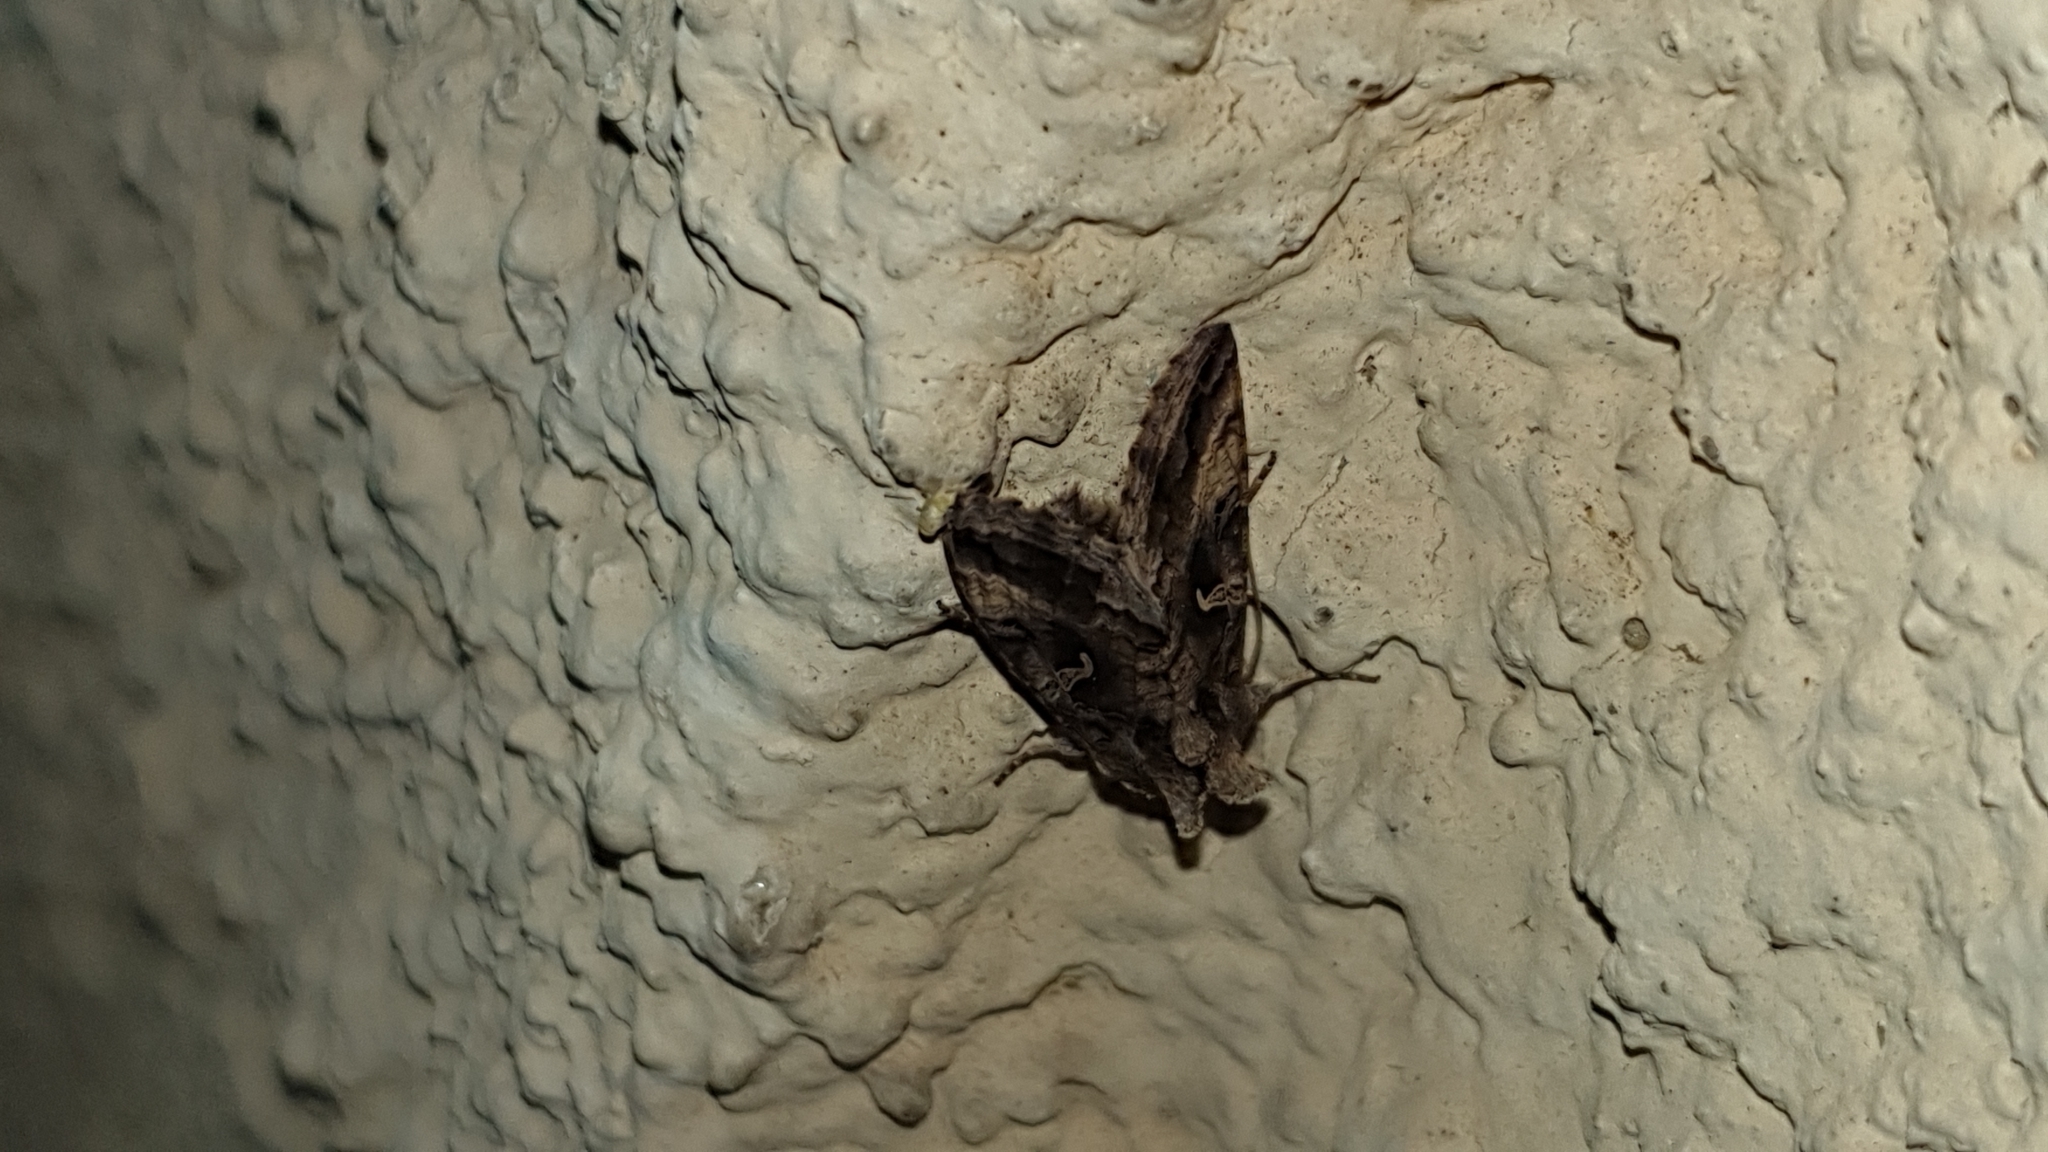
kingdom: Animalia
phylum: Arthropoda
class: Insecta
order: Lepidoptera
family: Noctuidae
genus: Autographa
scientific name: Autographa gamma
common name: Silver y
